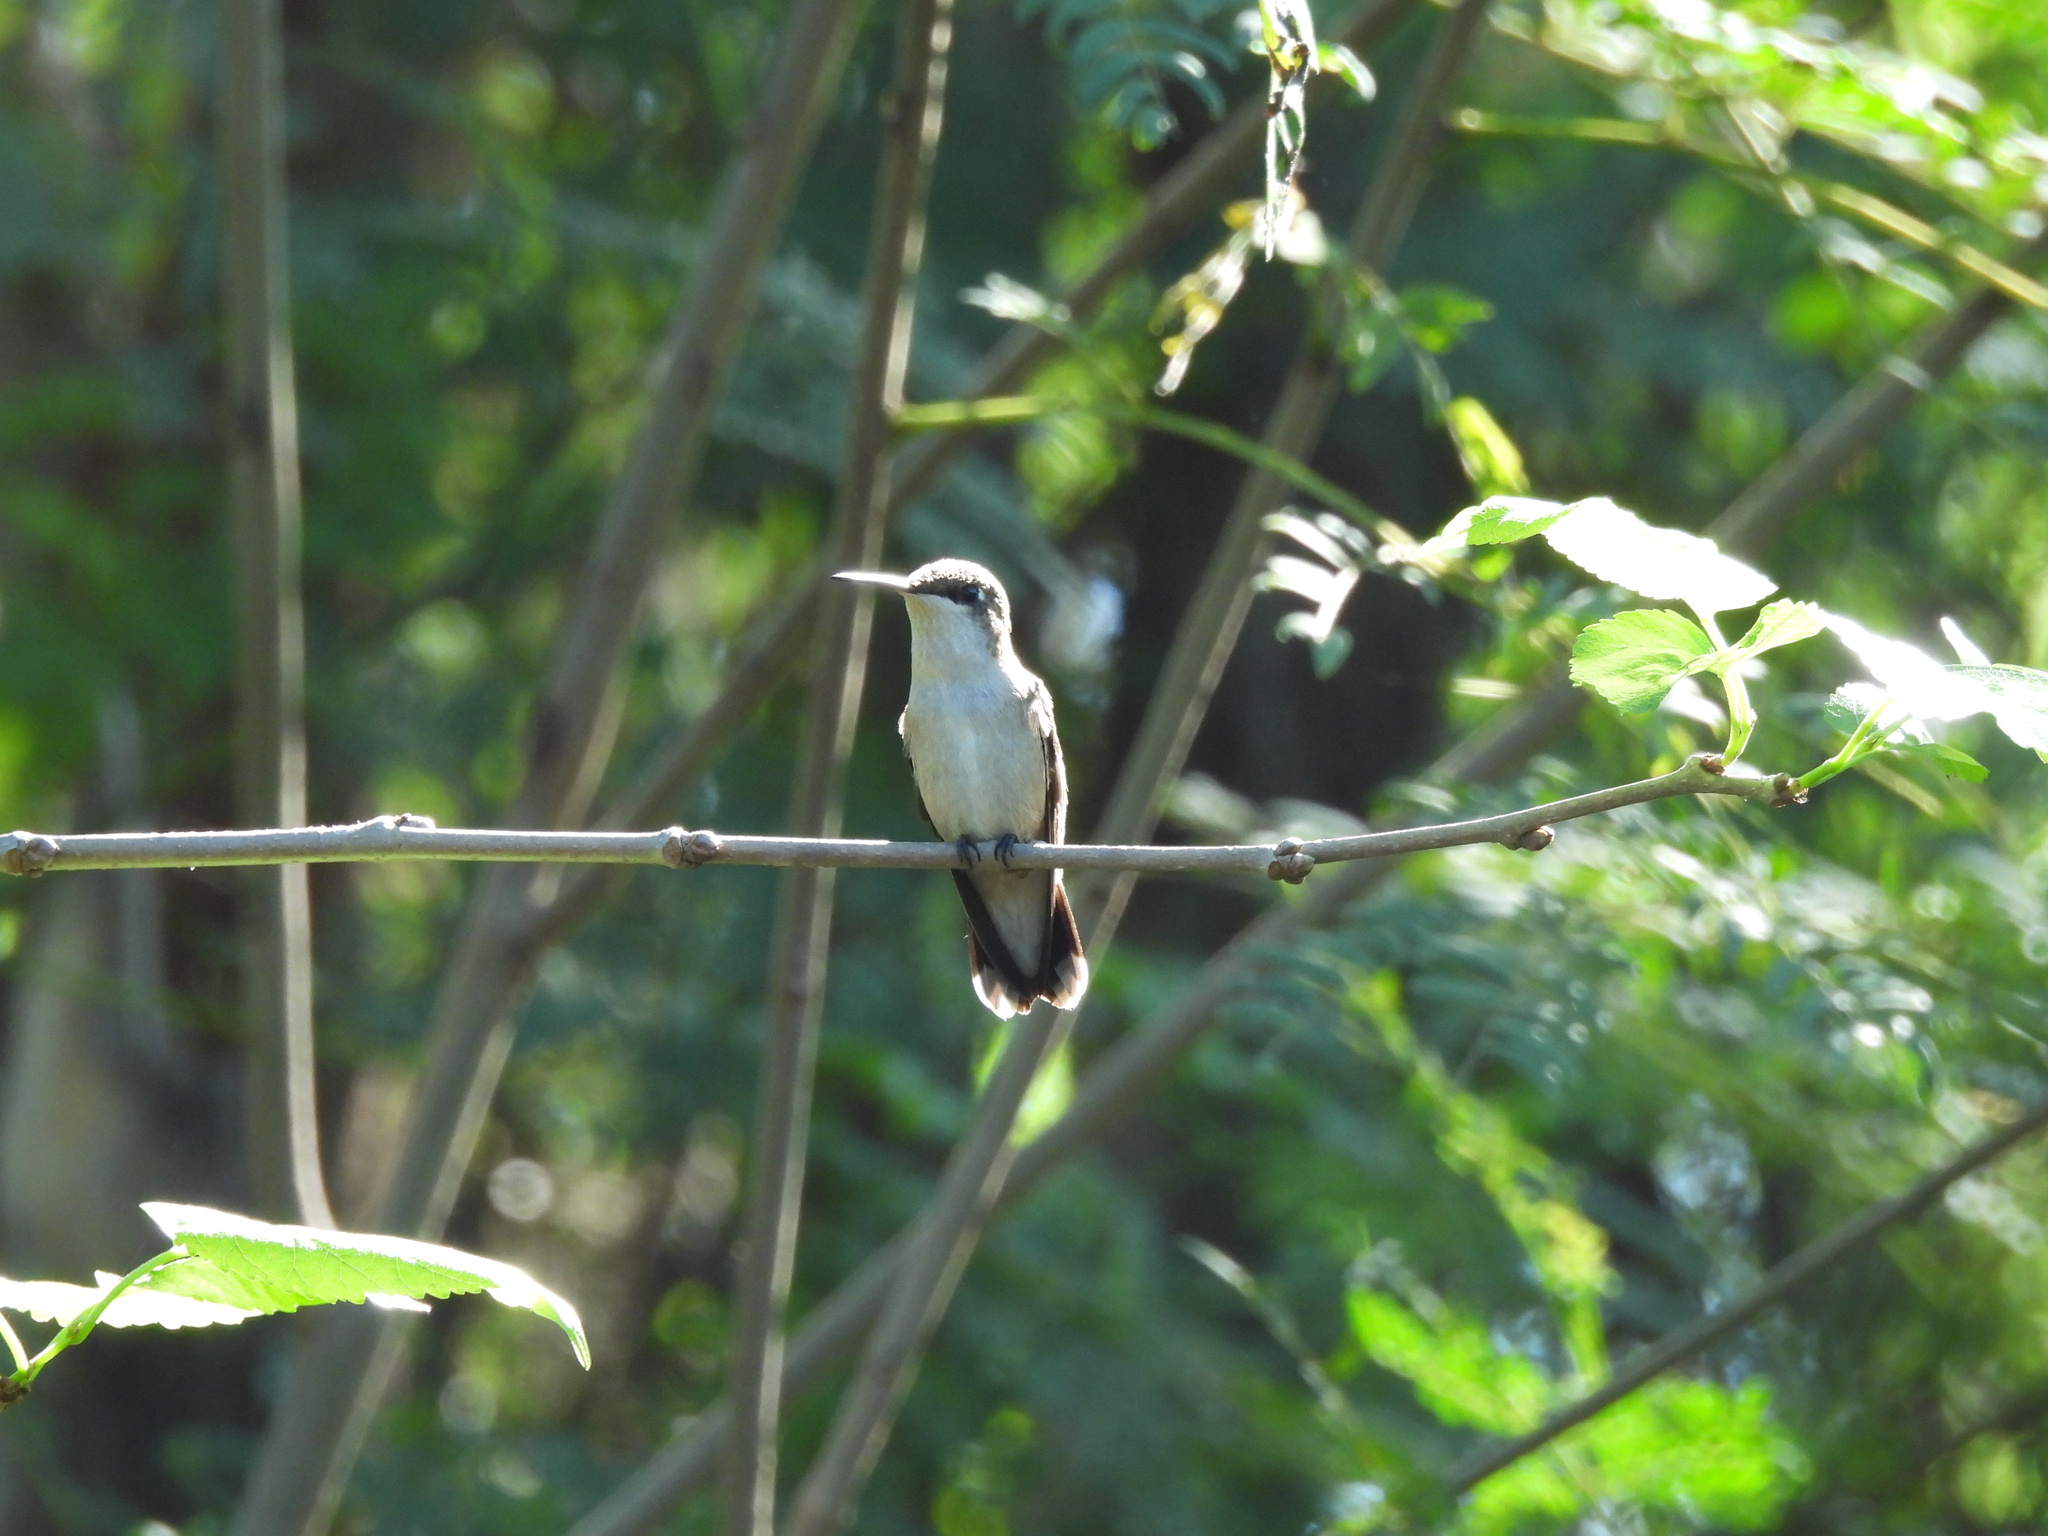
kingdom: Animalia
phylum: Chordata
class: Aves
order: Apodiformes
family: Trochilidae
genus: Archilochus
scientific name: Archilochus
